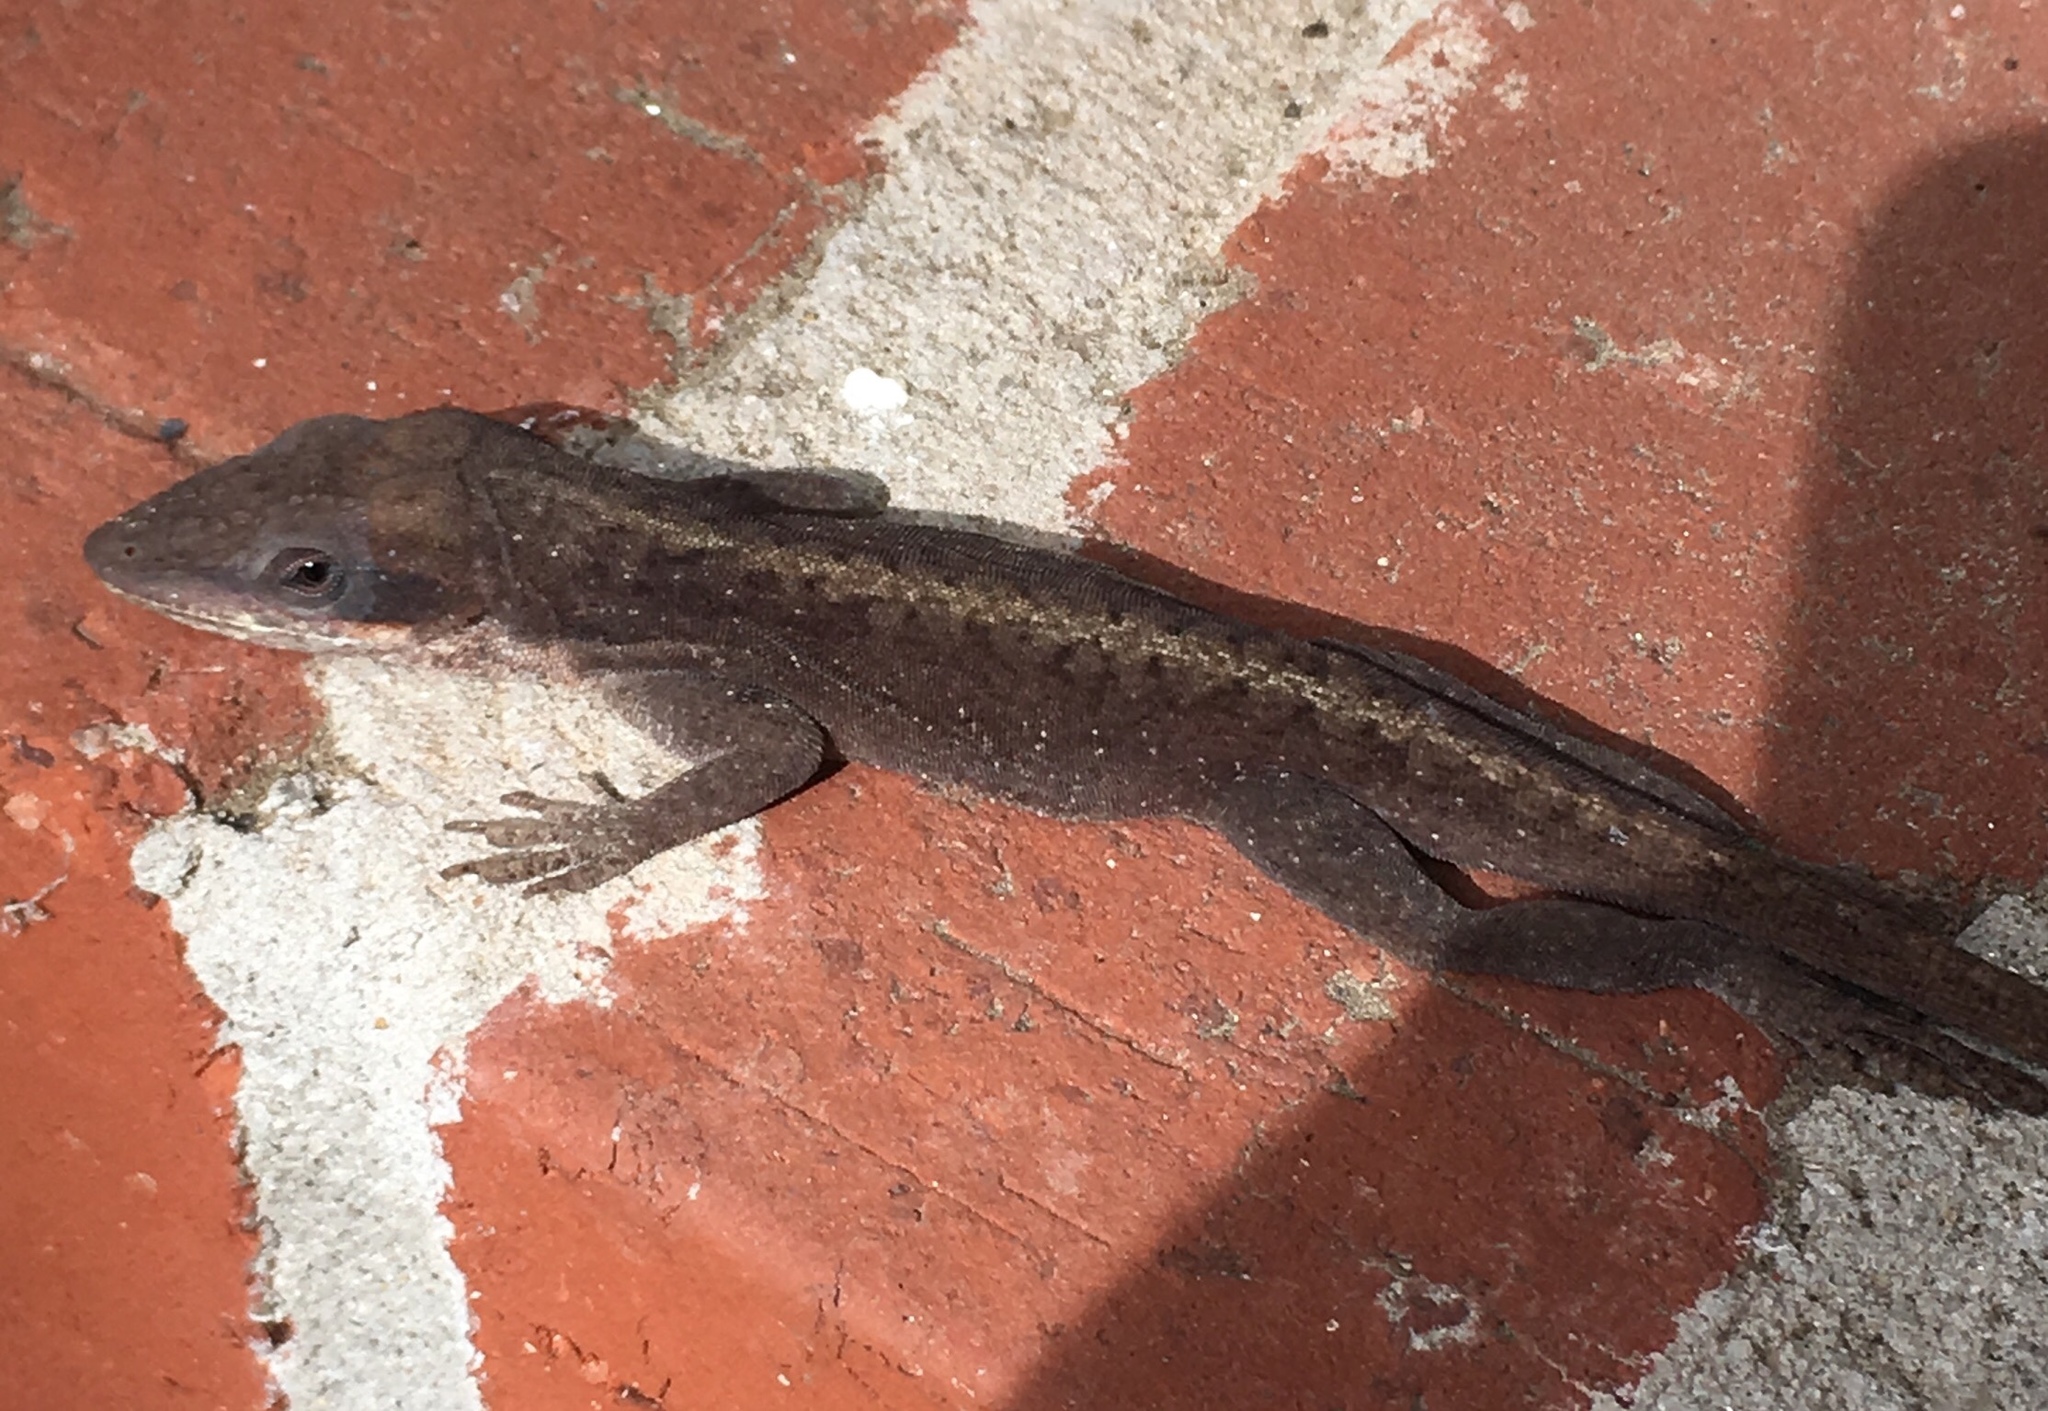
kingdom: Animalia
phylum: Chordata
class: Squamata
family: Dactyloidae
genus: Anolis
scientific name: Anolis carolinensis
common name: Green anole
